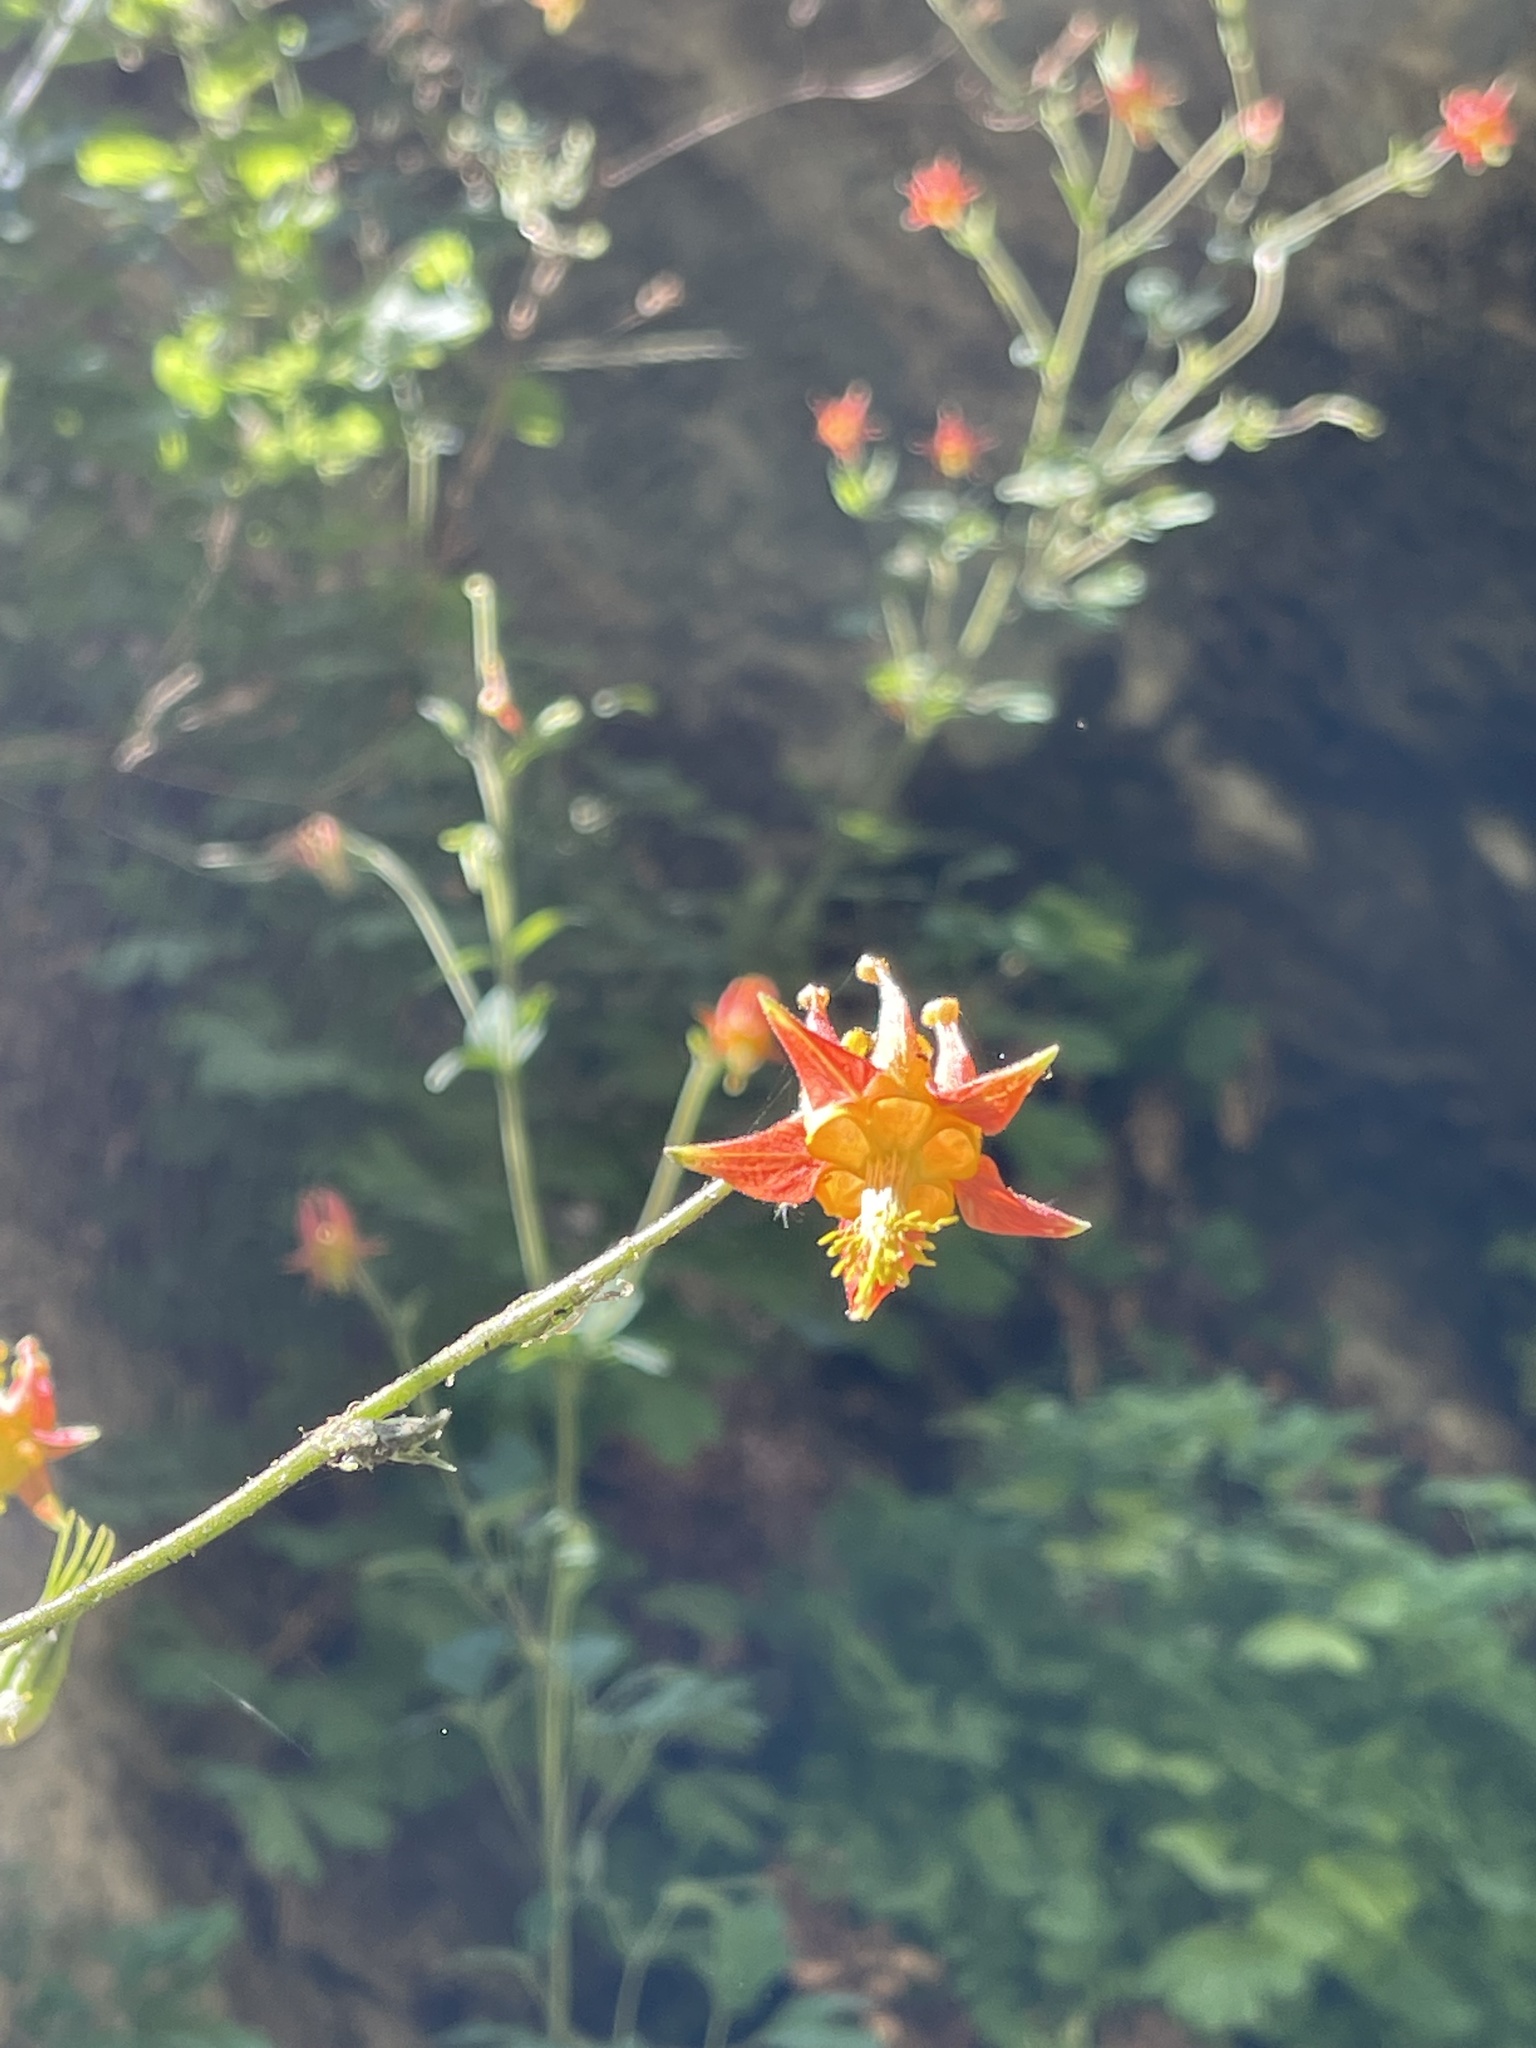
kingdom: Plantae
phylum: Tracheophyta
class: Magnoliopsida
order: Ranunculales
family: Ranunculaceae
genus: Aquilegia
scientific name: Aquilegia formosa
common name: Sitka columbine
